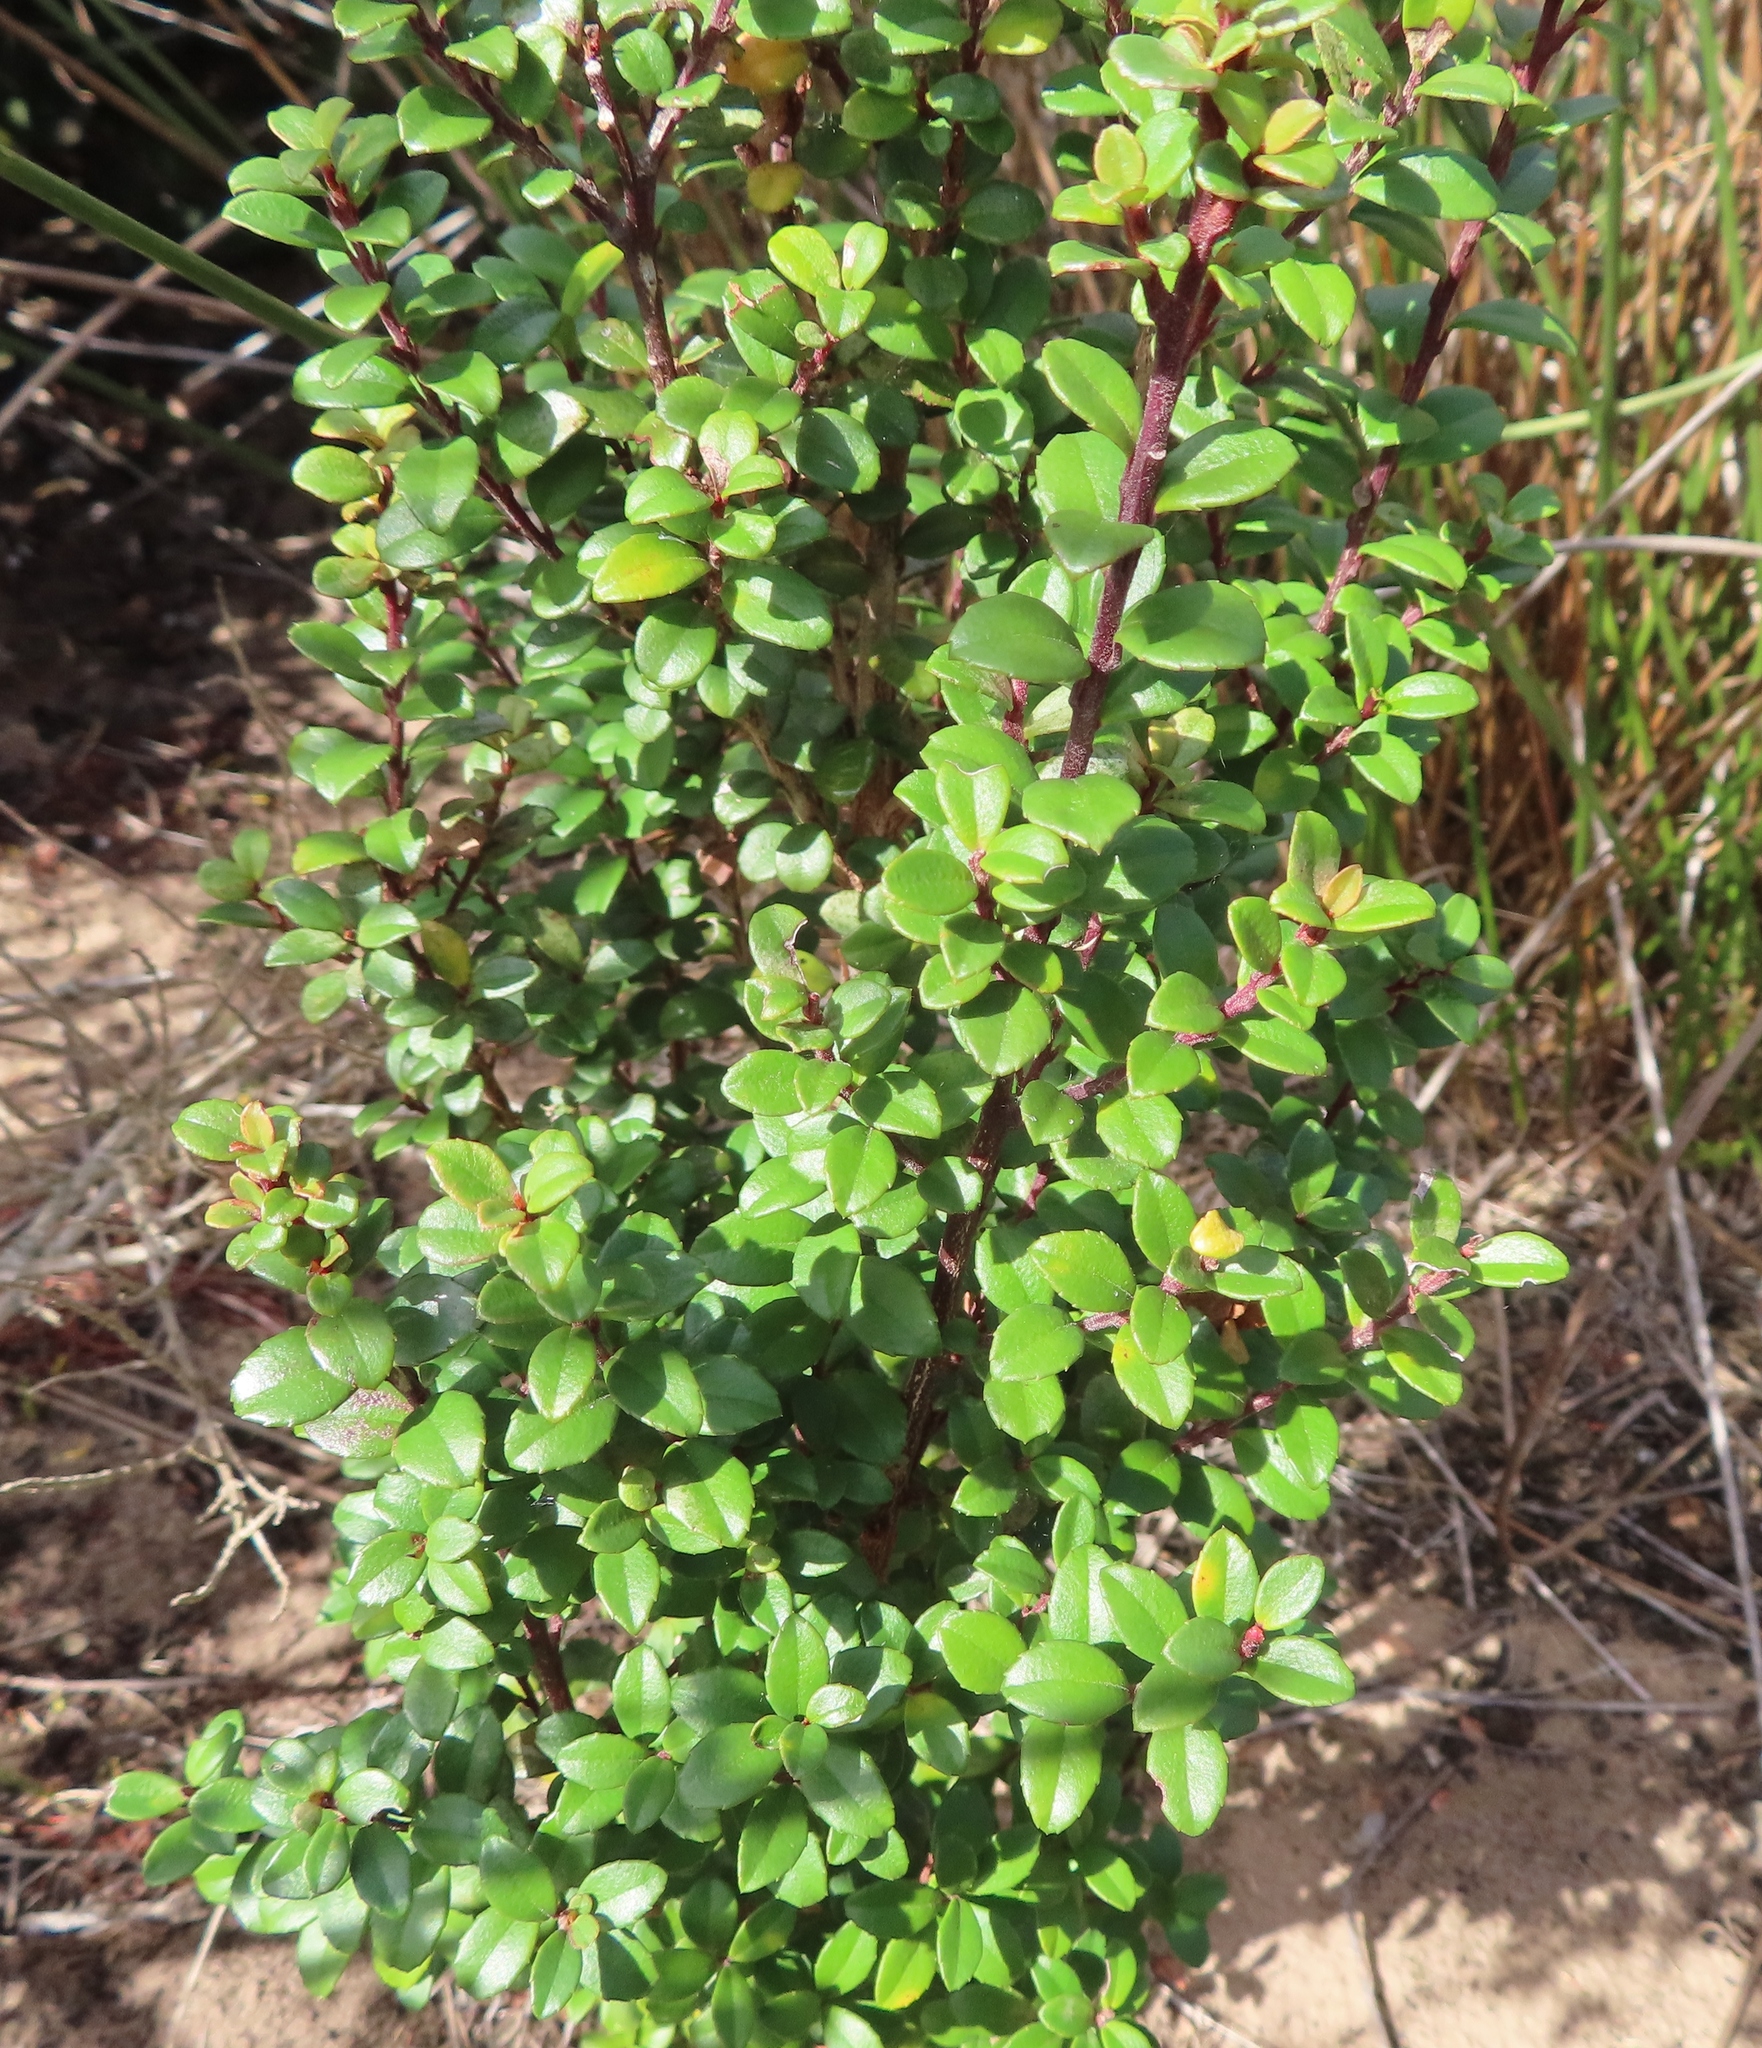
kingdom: Plantae
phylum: Tracheophyta
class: Magnoliopsida
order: Ericales
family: Primulaceae
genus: Myrsine
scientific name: Myrsine africana
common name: African-boxwood
